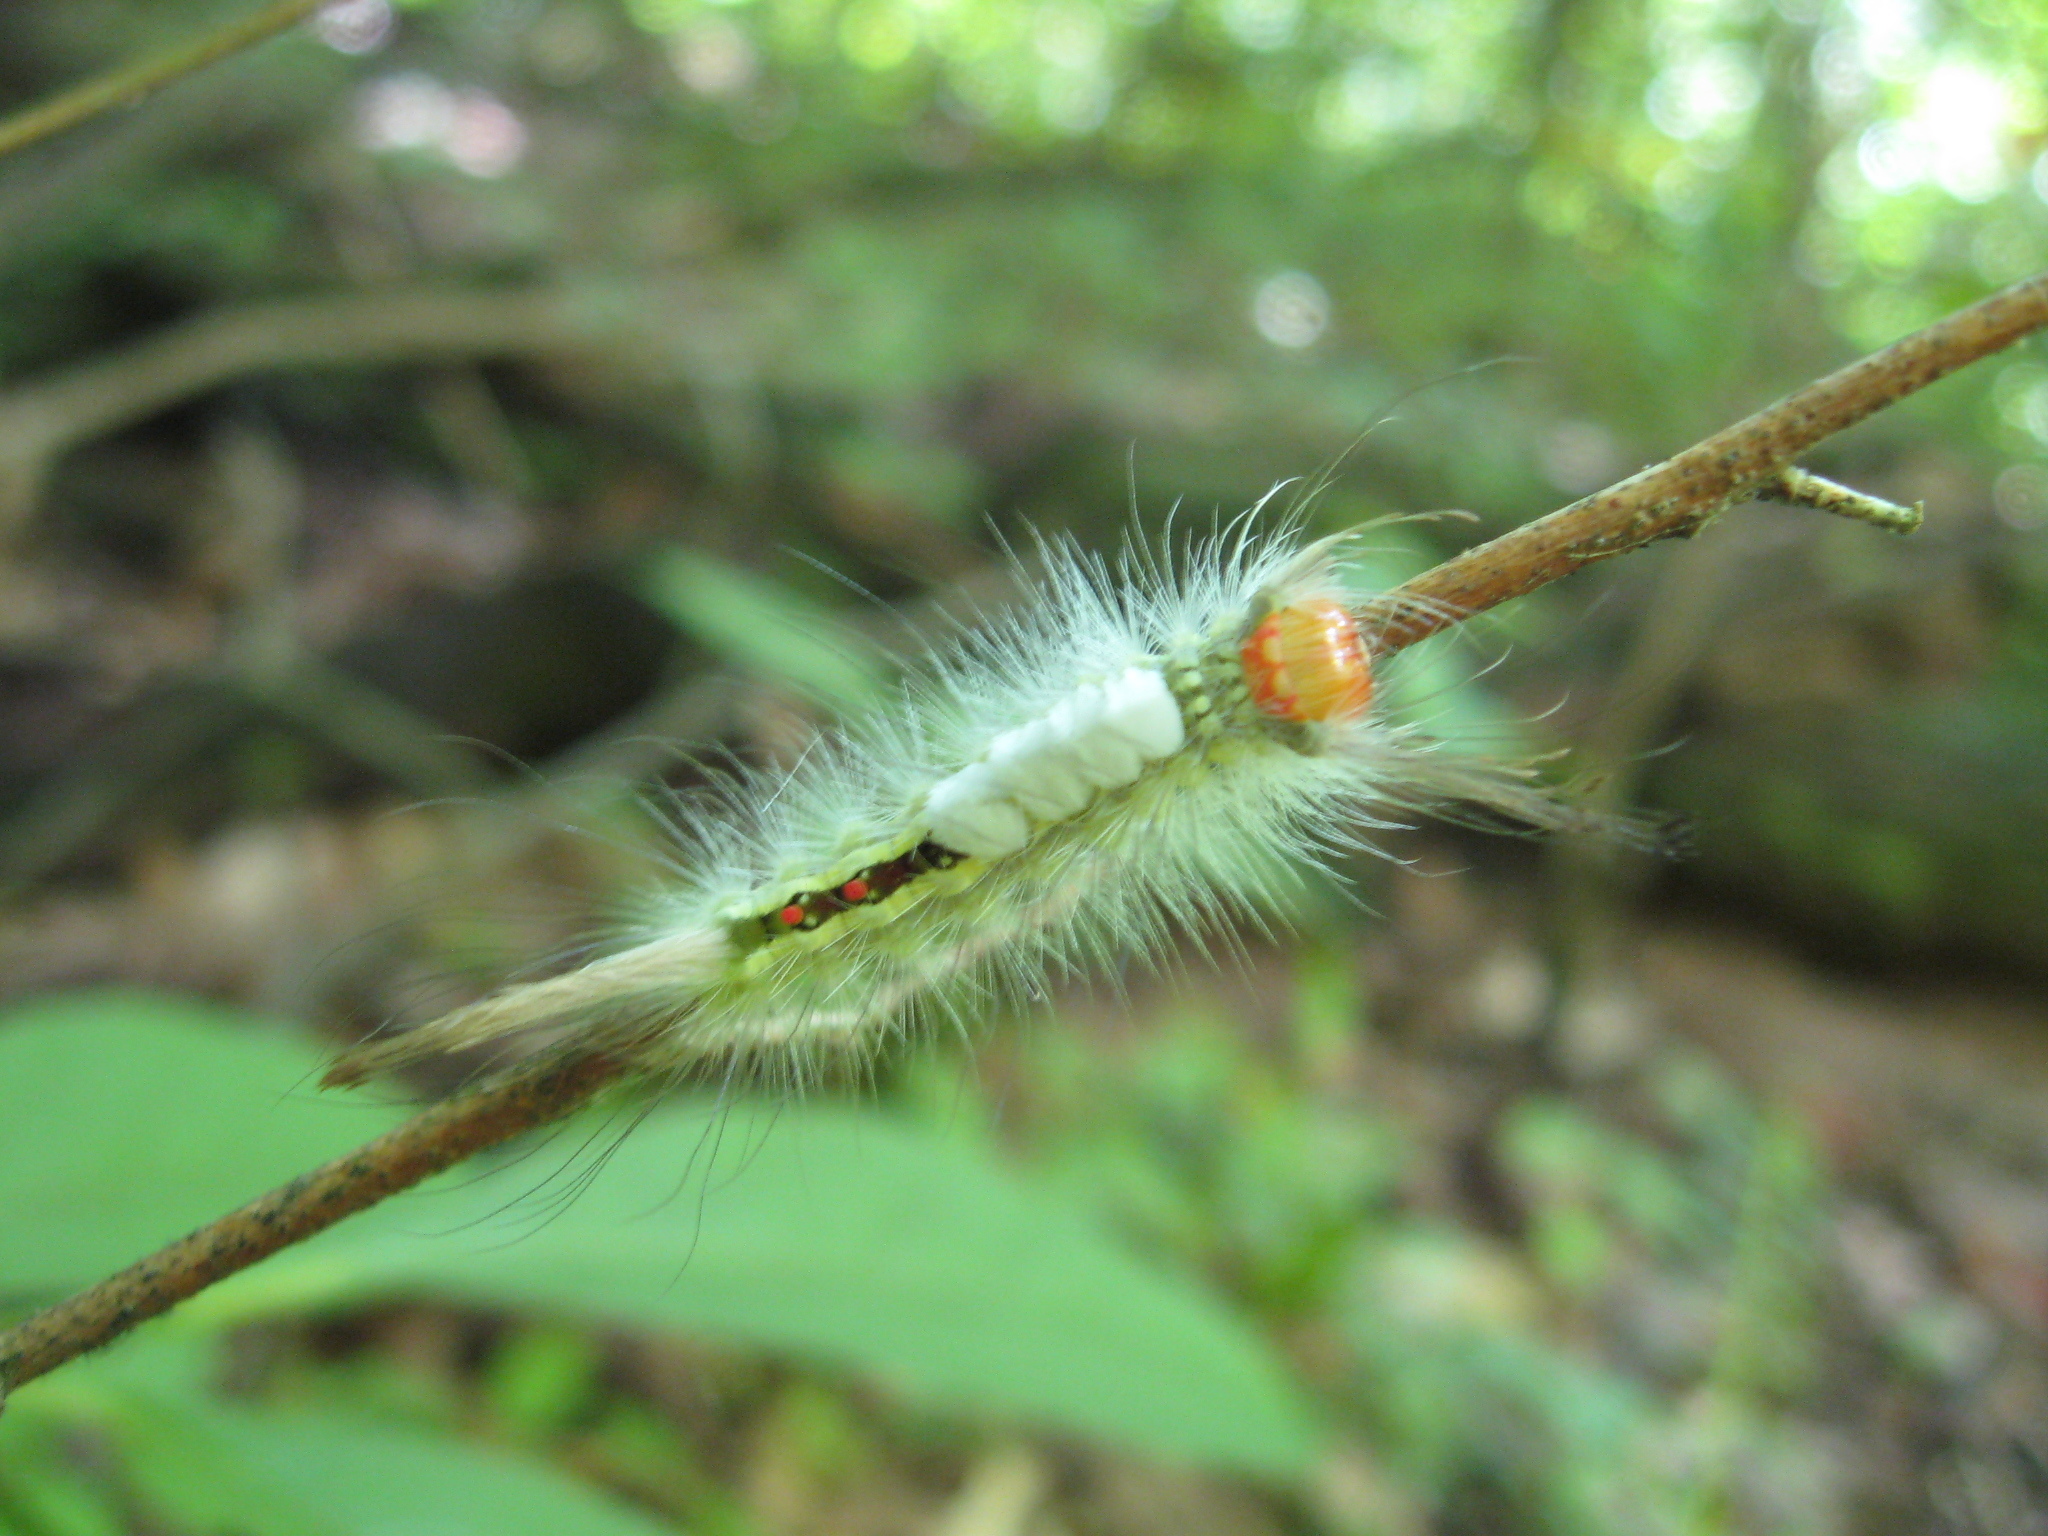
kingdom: Animalia
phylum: Arthropoda
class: Insecta
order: Lepidoptera
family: Erebidae
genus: Orgyia
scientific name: Orgyia leucostigma
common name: White-marked tussock moth
